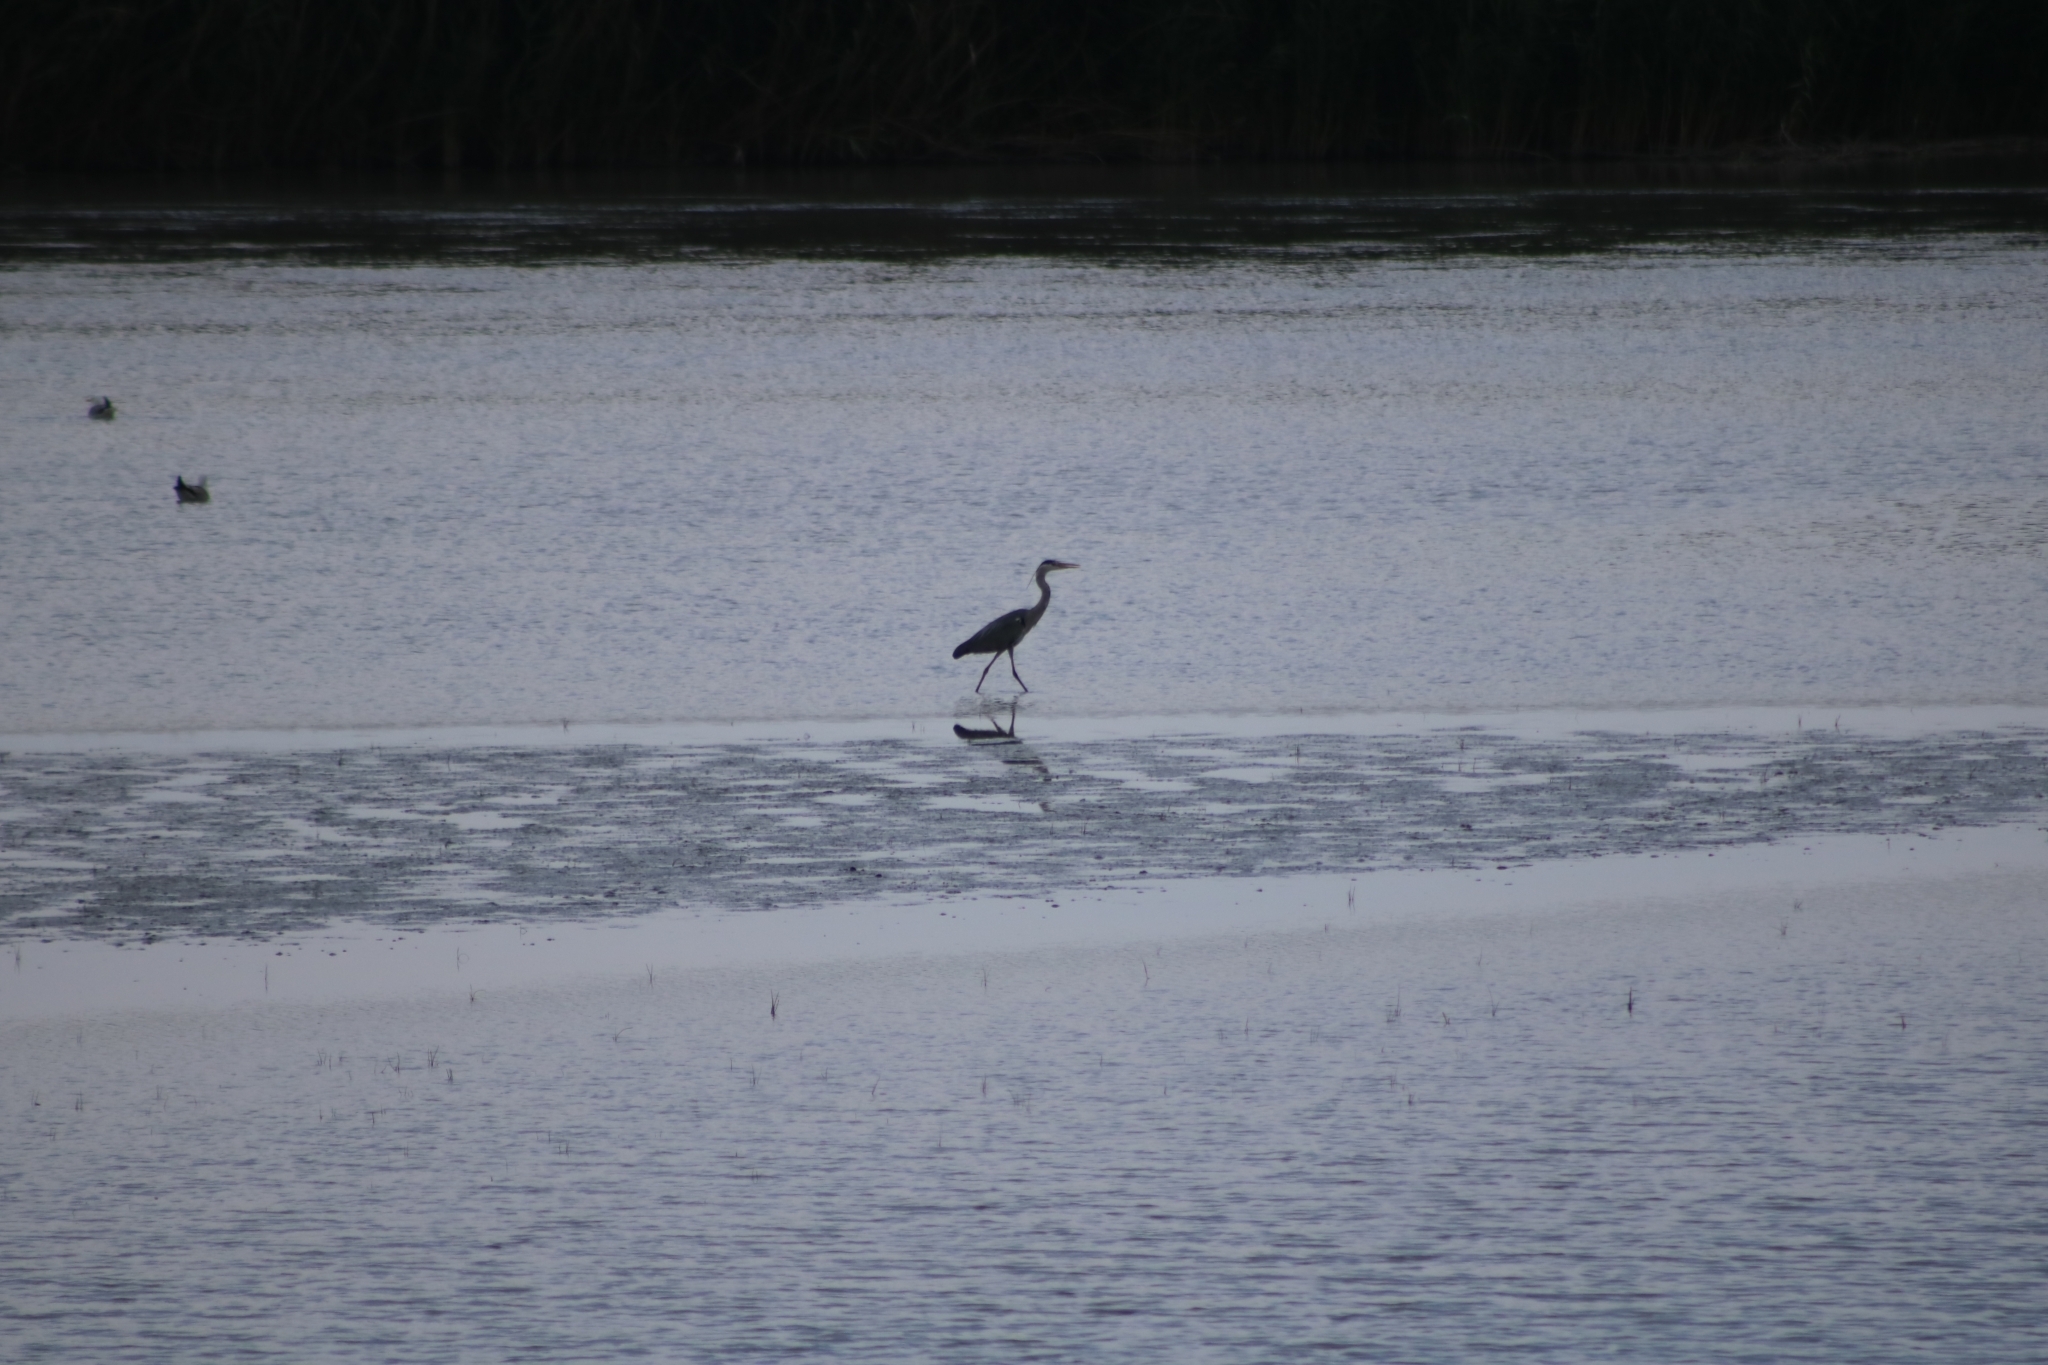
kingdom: Animalia
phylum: Chordata
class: Aves
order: Pelecaniformes
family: Ardeidae
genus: Ardea
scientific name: Ardea cinerea
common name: Grey heron
